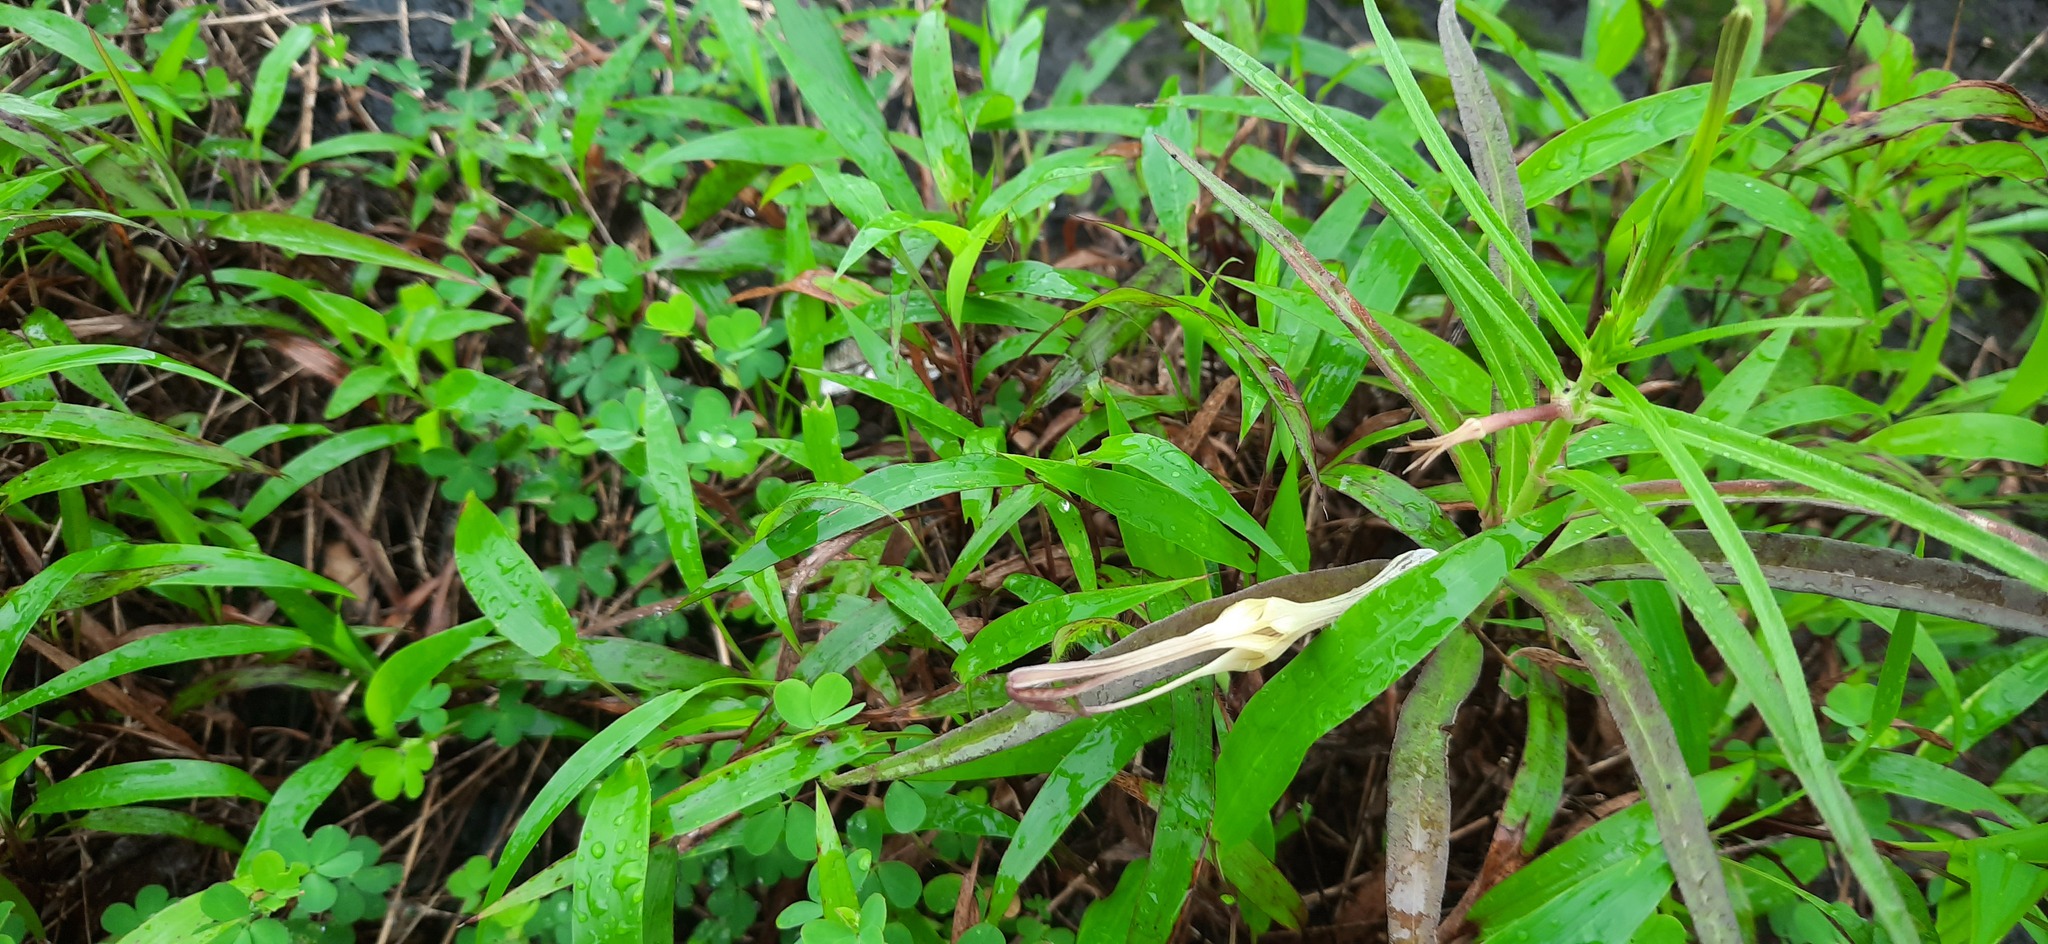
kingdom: Plantae
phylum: Tracheophyta
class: Magnoliopsida
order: Gentianales
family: Apocynaceae
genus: Ceropegia
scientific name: Ceropegia attenuata
